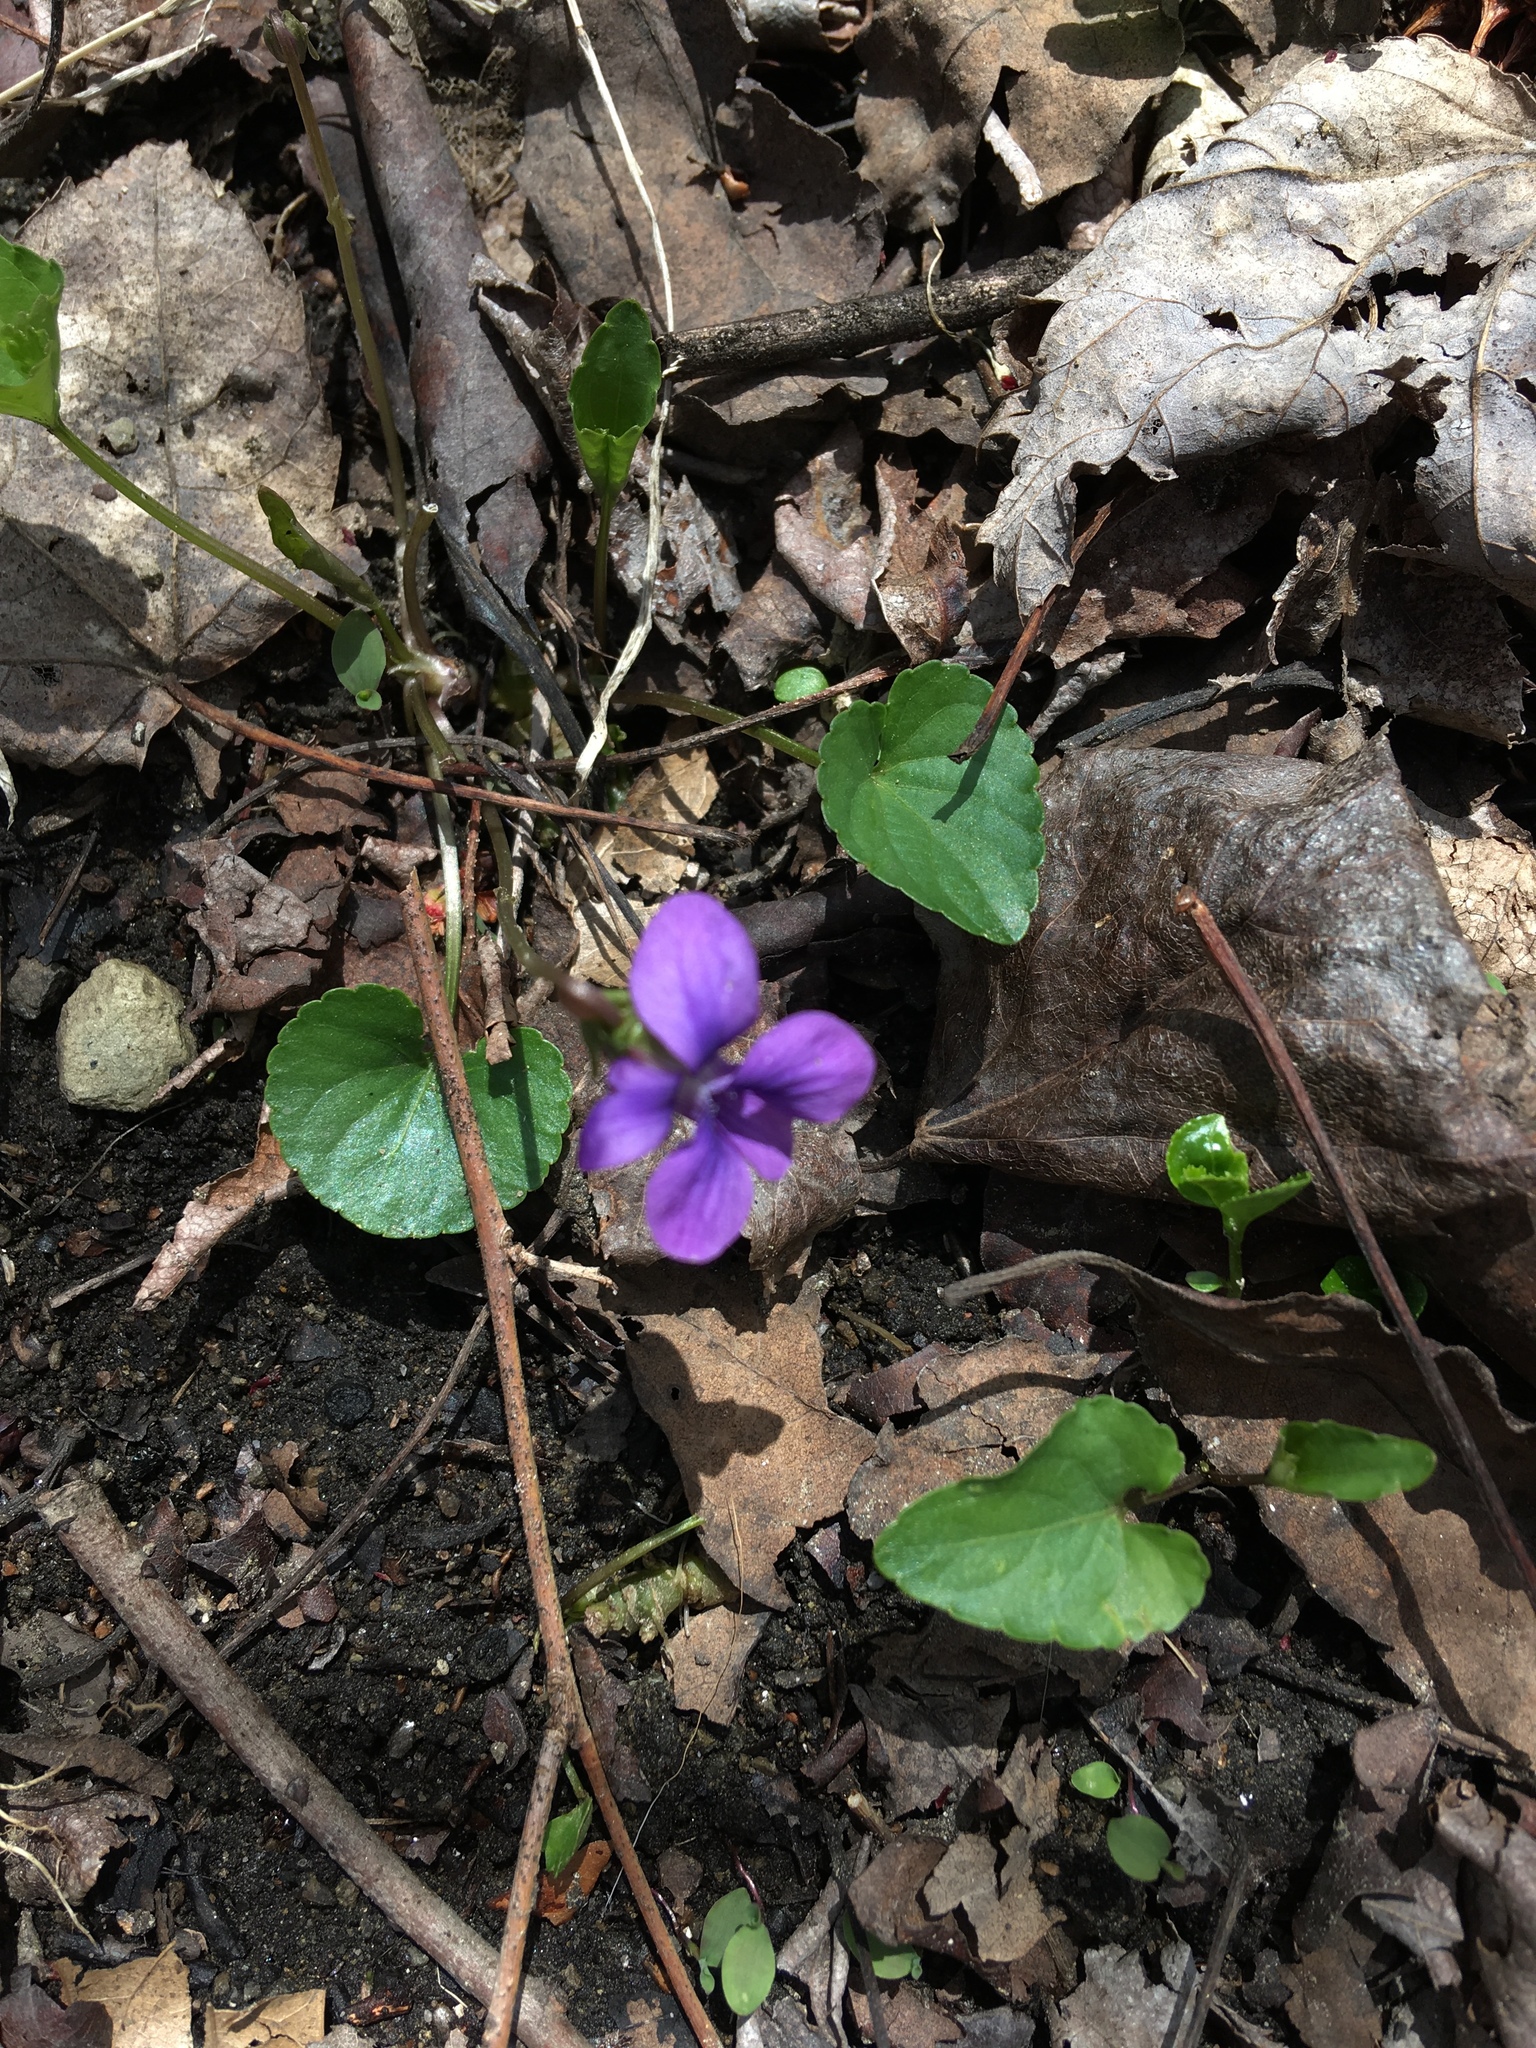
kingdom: Plantae
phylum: Tracheophyta
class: Magnoliopsida
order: Malpighiales
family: Violaceae
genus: Viola
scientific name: Viola sororia
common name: Dooryard violet
